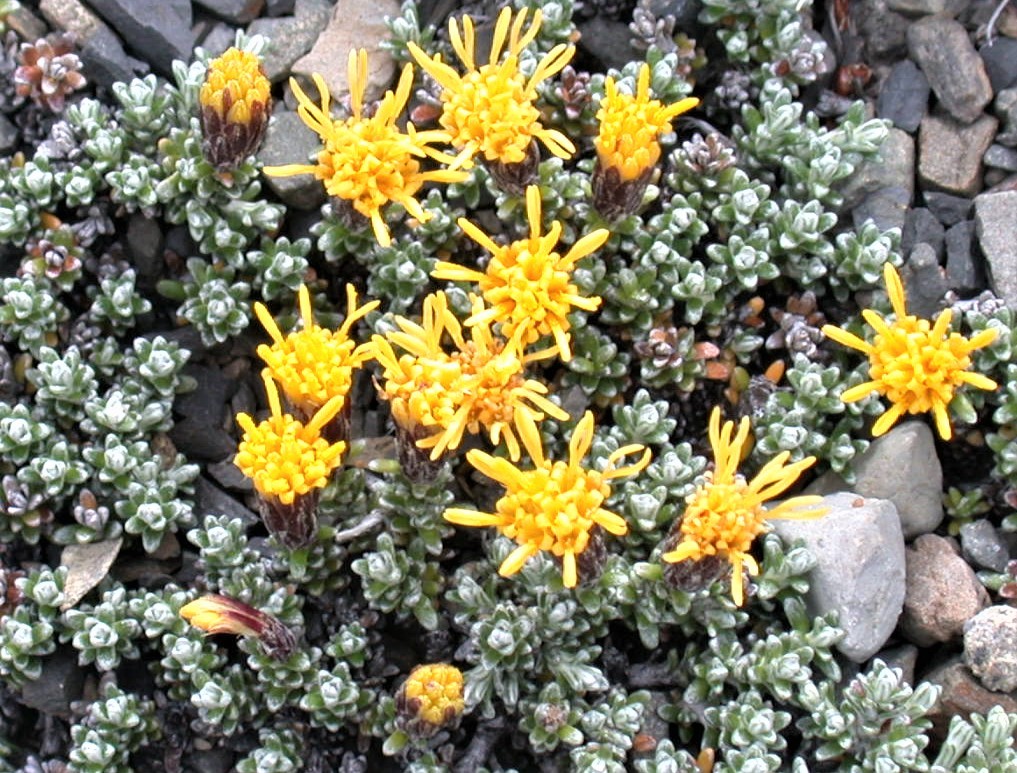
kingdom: Plantae
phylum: Tracheophyta
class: Magnoliopsida
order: Asterales
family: Asteraceae
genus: Nardophyllum
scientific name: Nardophyllum bryoides
